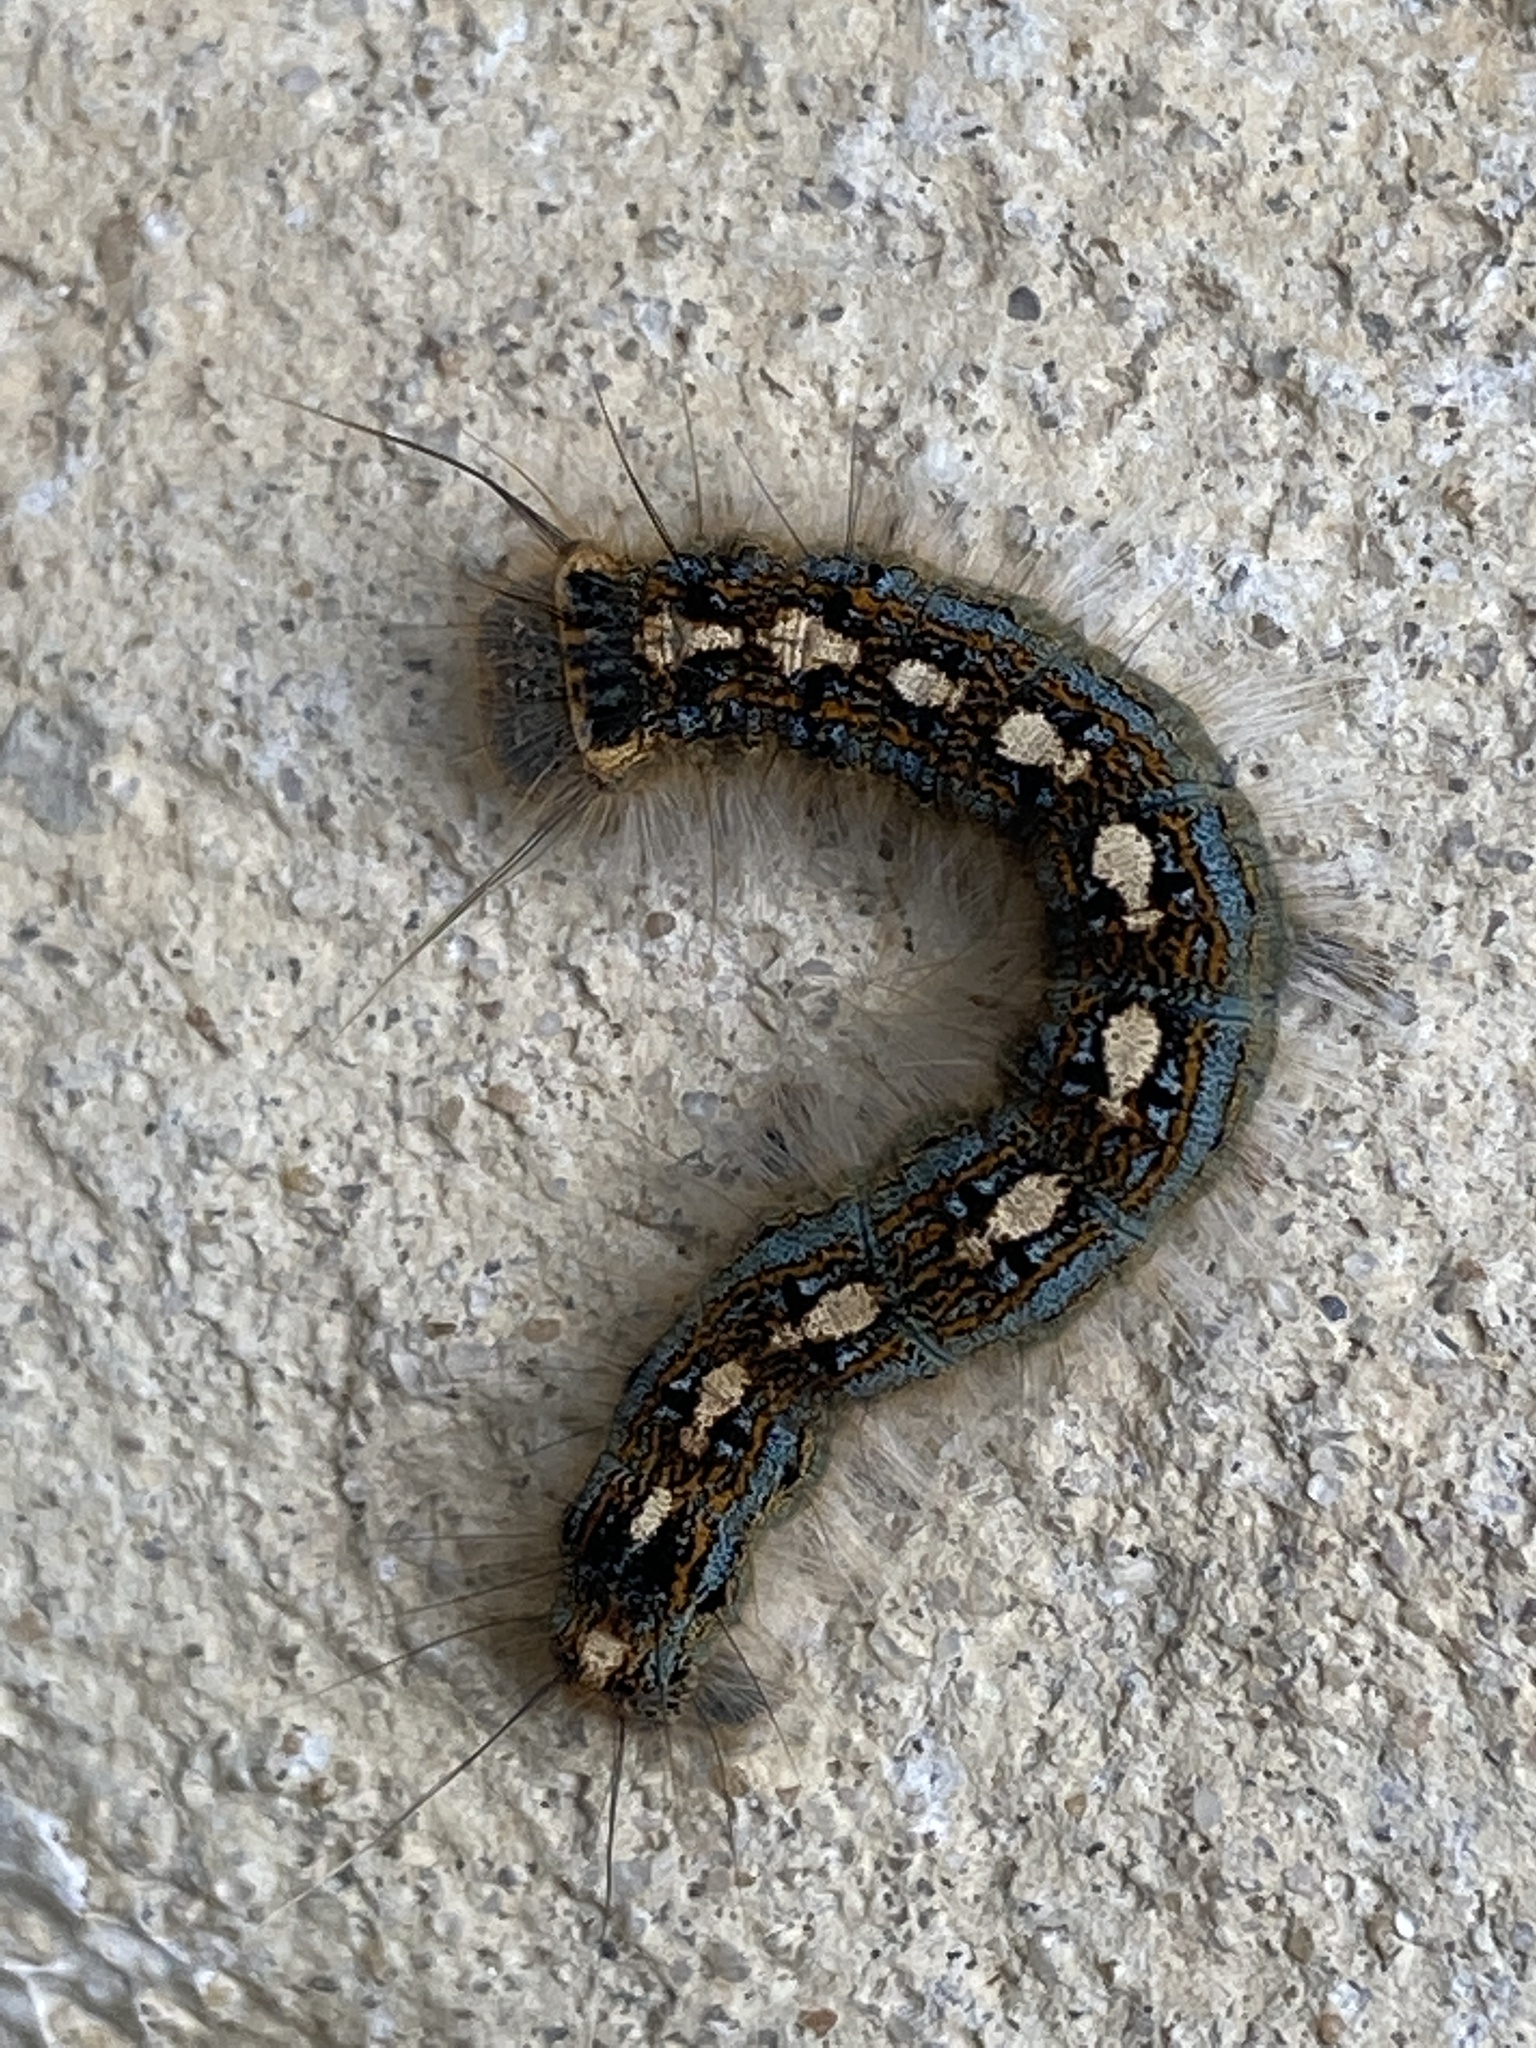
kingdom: Animalia
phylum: Arthropoda
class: Insecta
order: Lepidoptera
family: Lasiocampidae
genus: Malacosoma
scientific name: Malacosoma disstria
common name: Forest tent caterpillar
